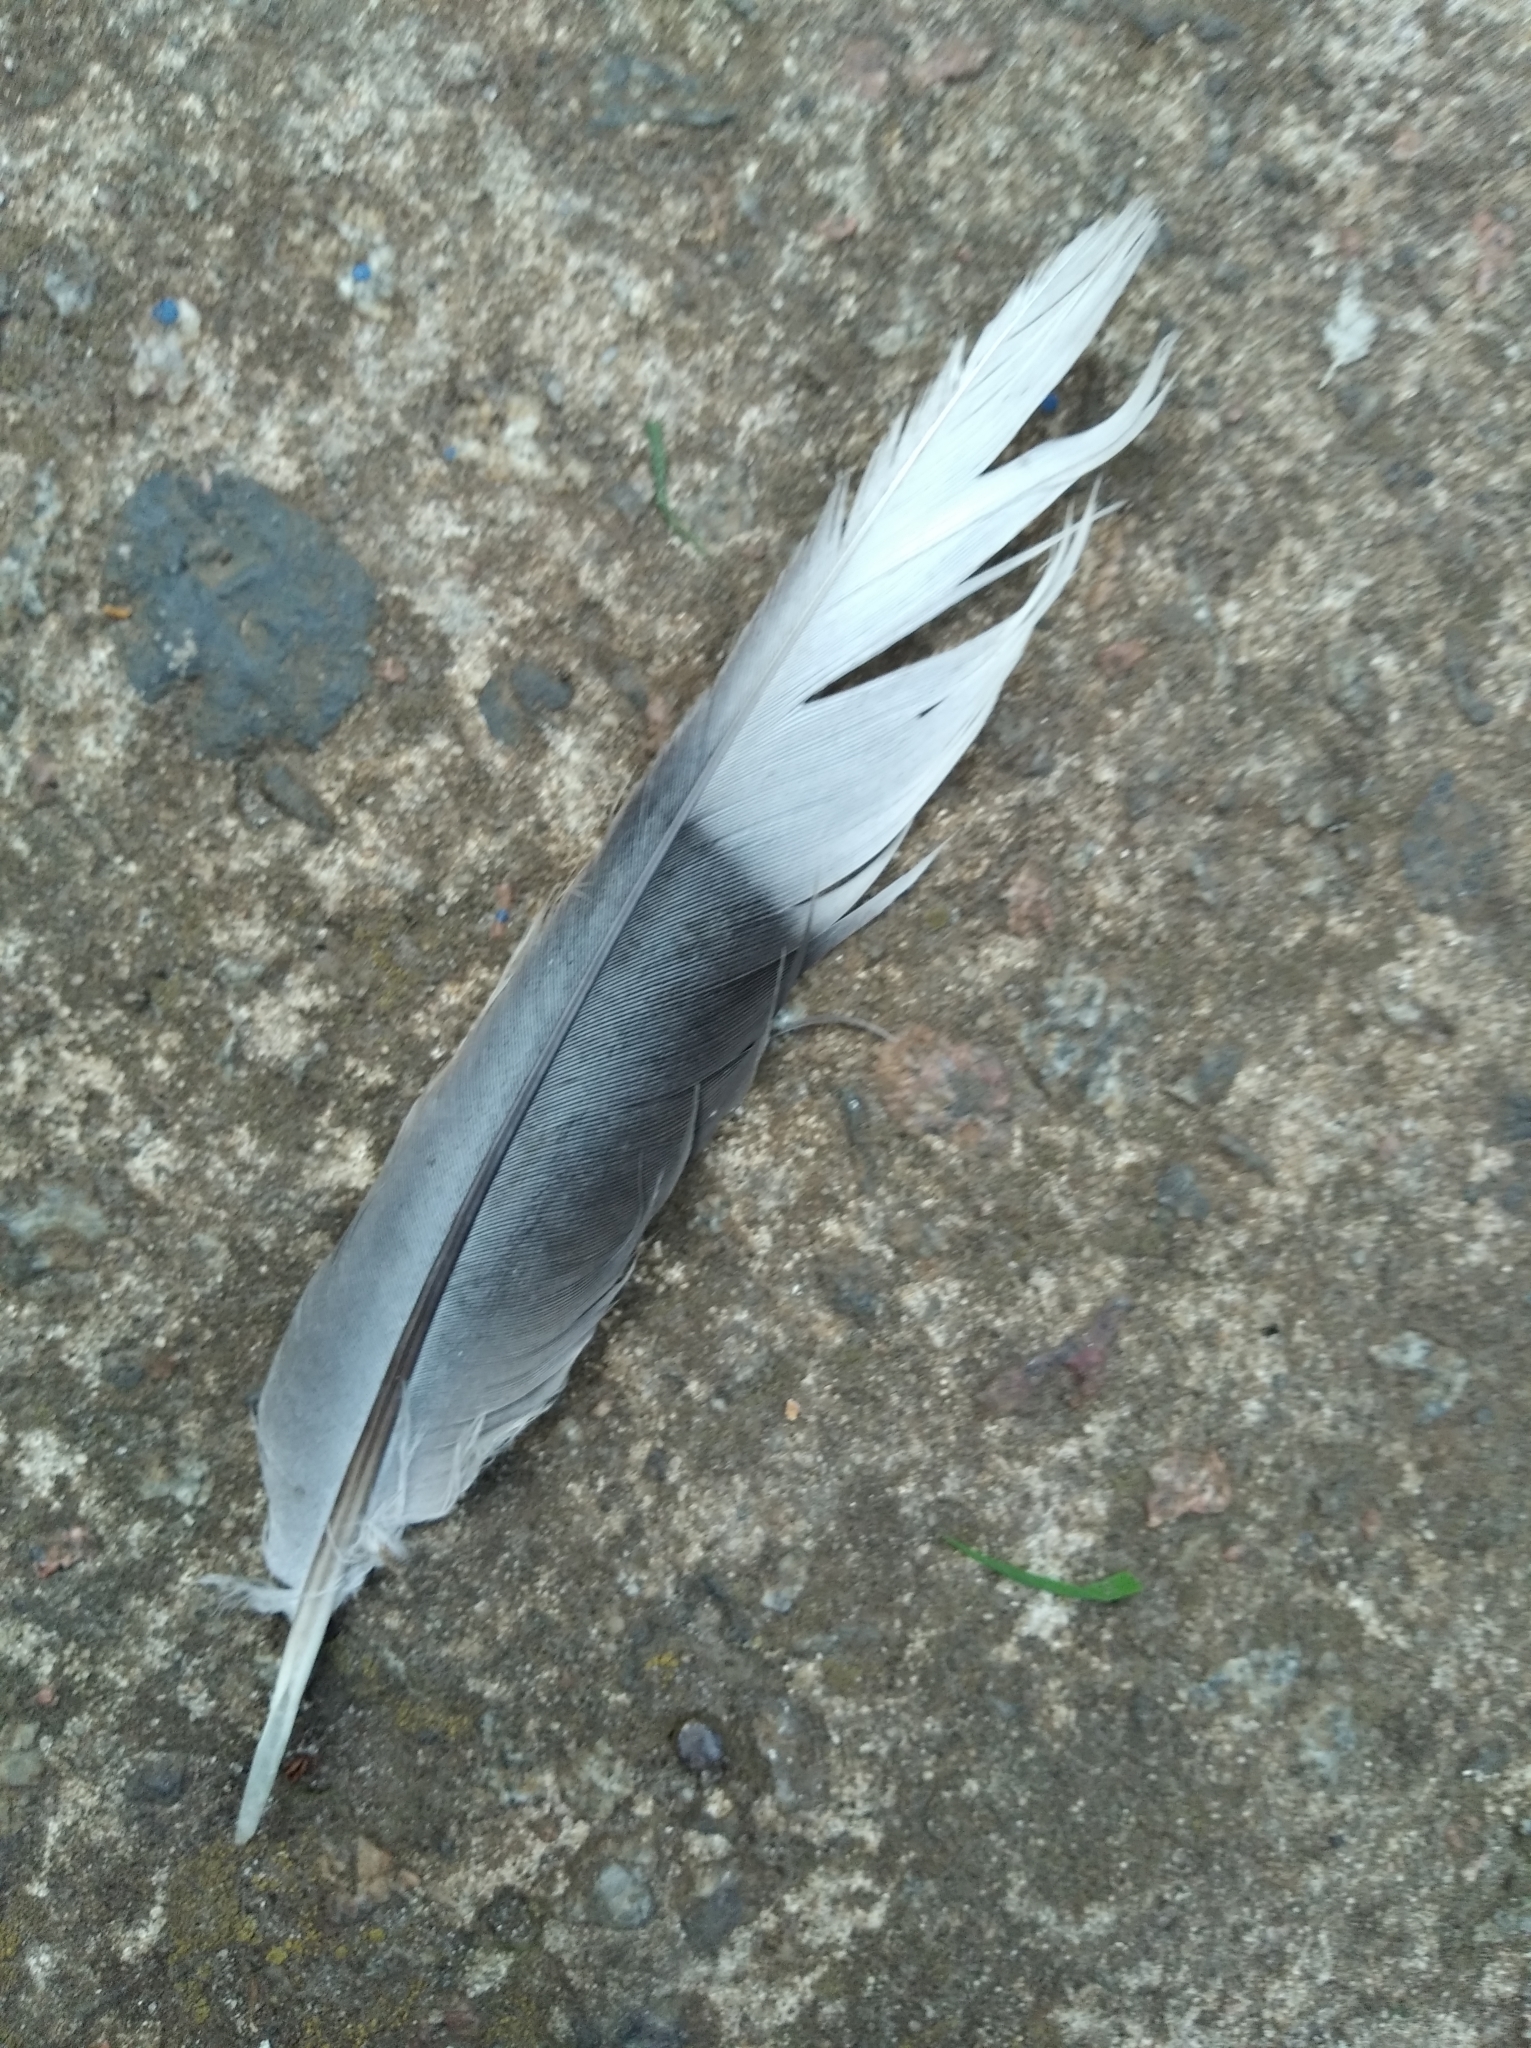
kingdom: Animalia
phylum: Chordata
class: Aves
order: Columbiformes
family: Columbidae
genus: Streptopelia
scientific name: Streptopelia decaocto
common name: Eurasian collared dove
